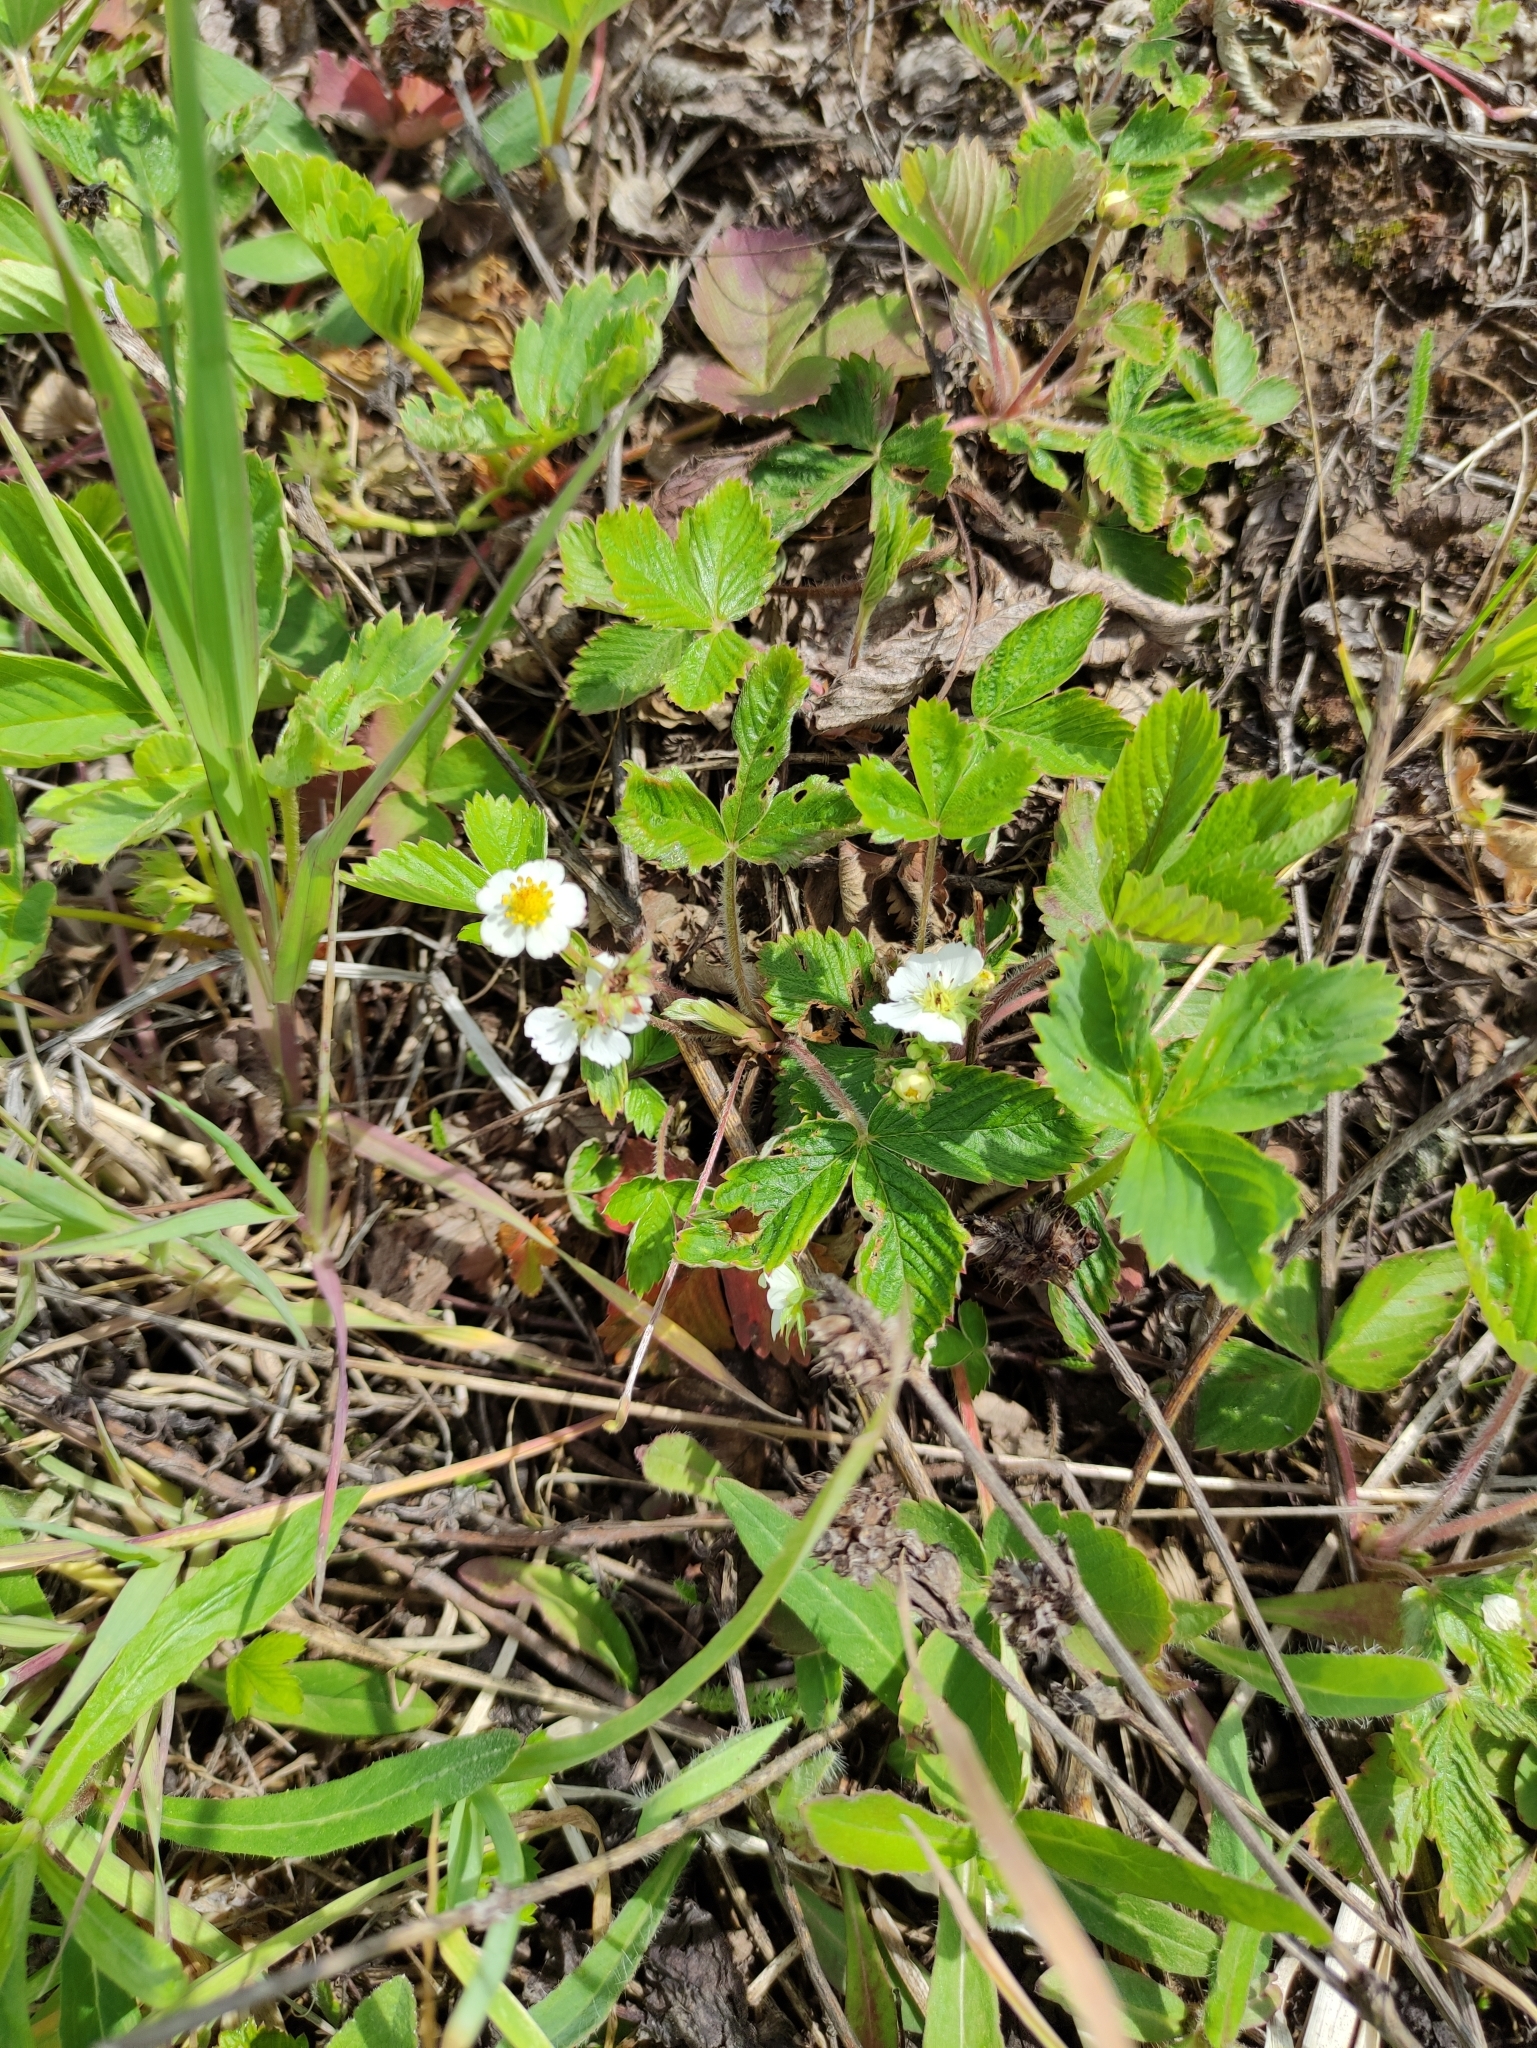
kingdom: Plantae
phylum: Tracheophyta
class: Magnoliopsida
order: Rosales
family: Rosaceae
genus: Fragaria
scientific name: Fragaria vesca
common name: Wild strawberry
